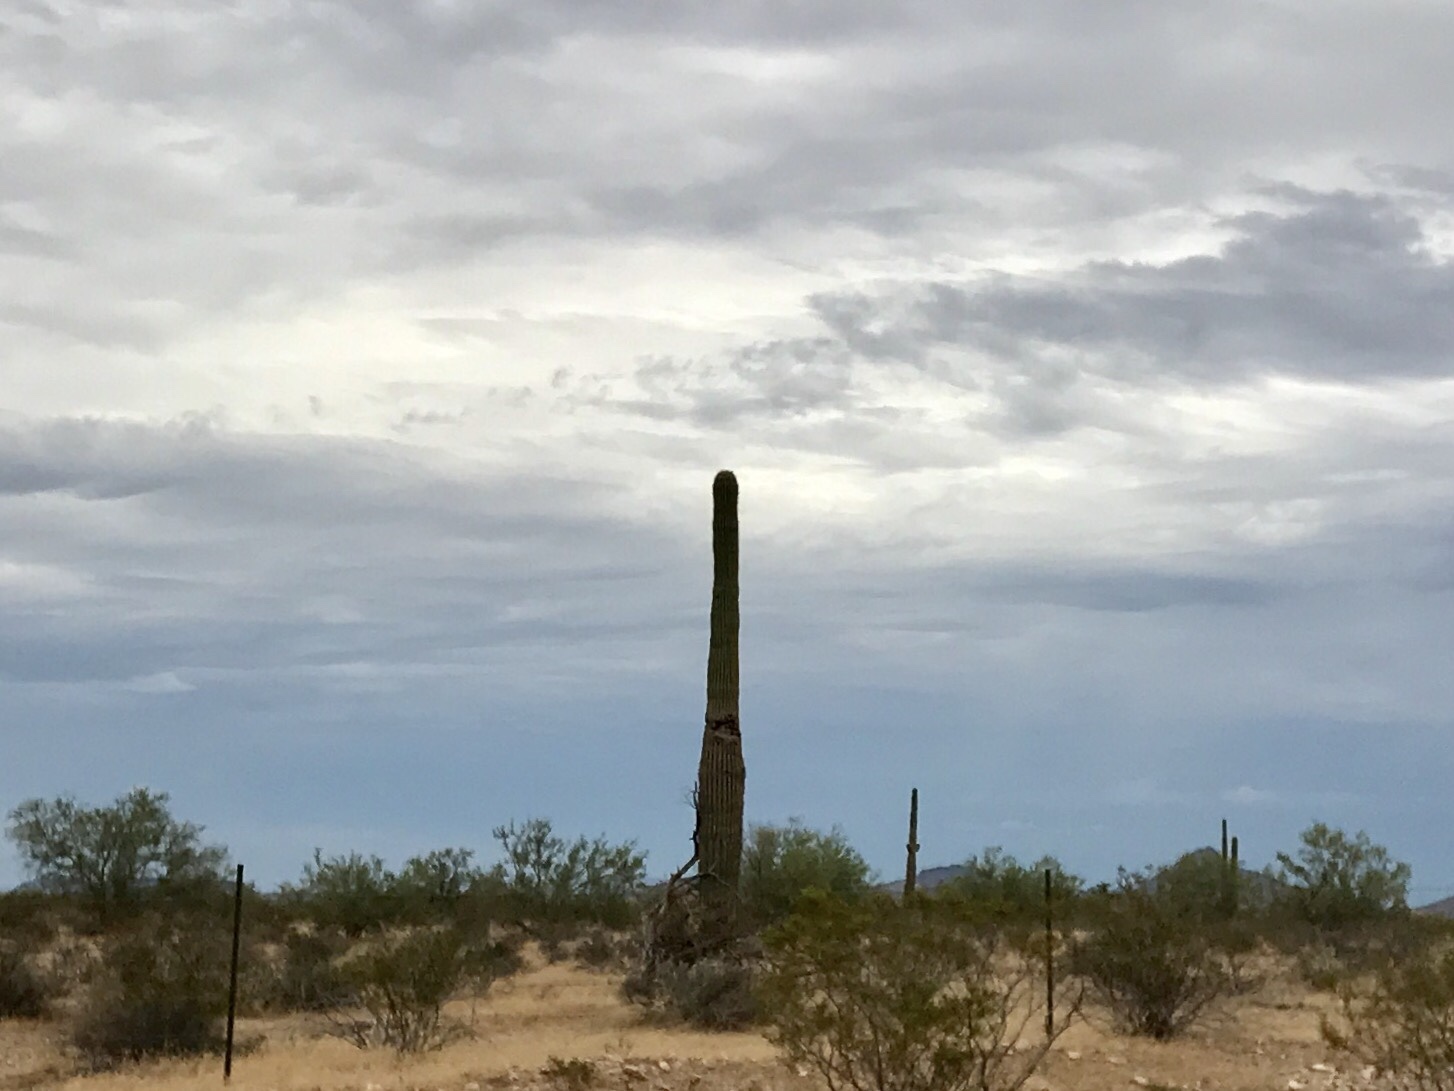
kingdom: Plantae
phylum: Tracheophyta
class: Magnoliopsida
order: Caryophyllales
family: Cactaceae
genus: Carnegiea
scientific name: Carnegiea gigantea
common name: Saguaro
